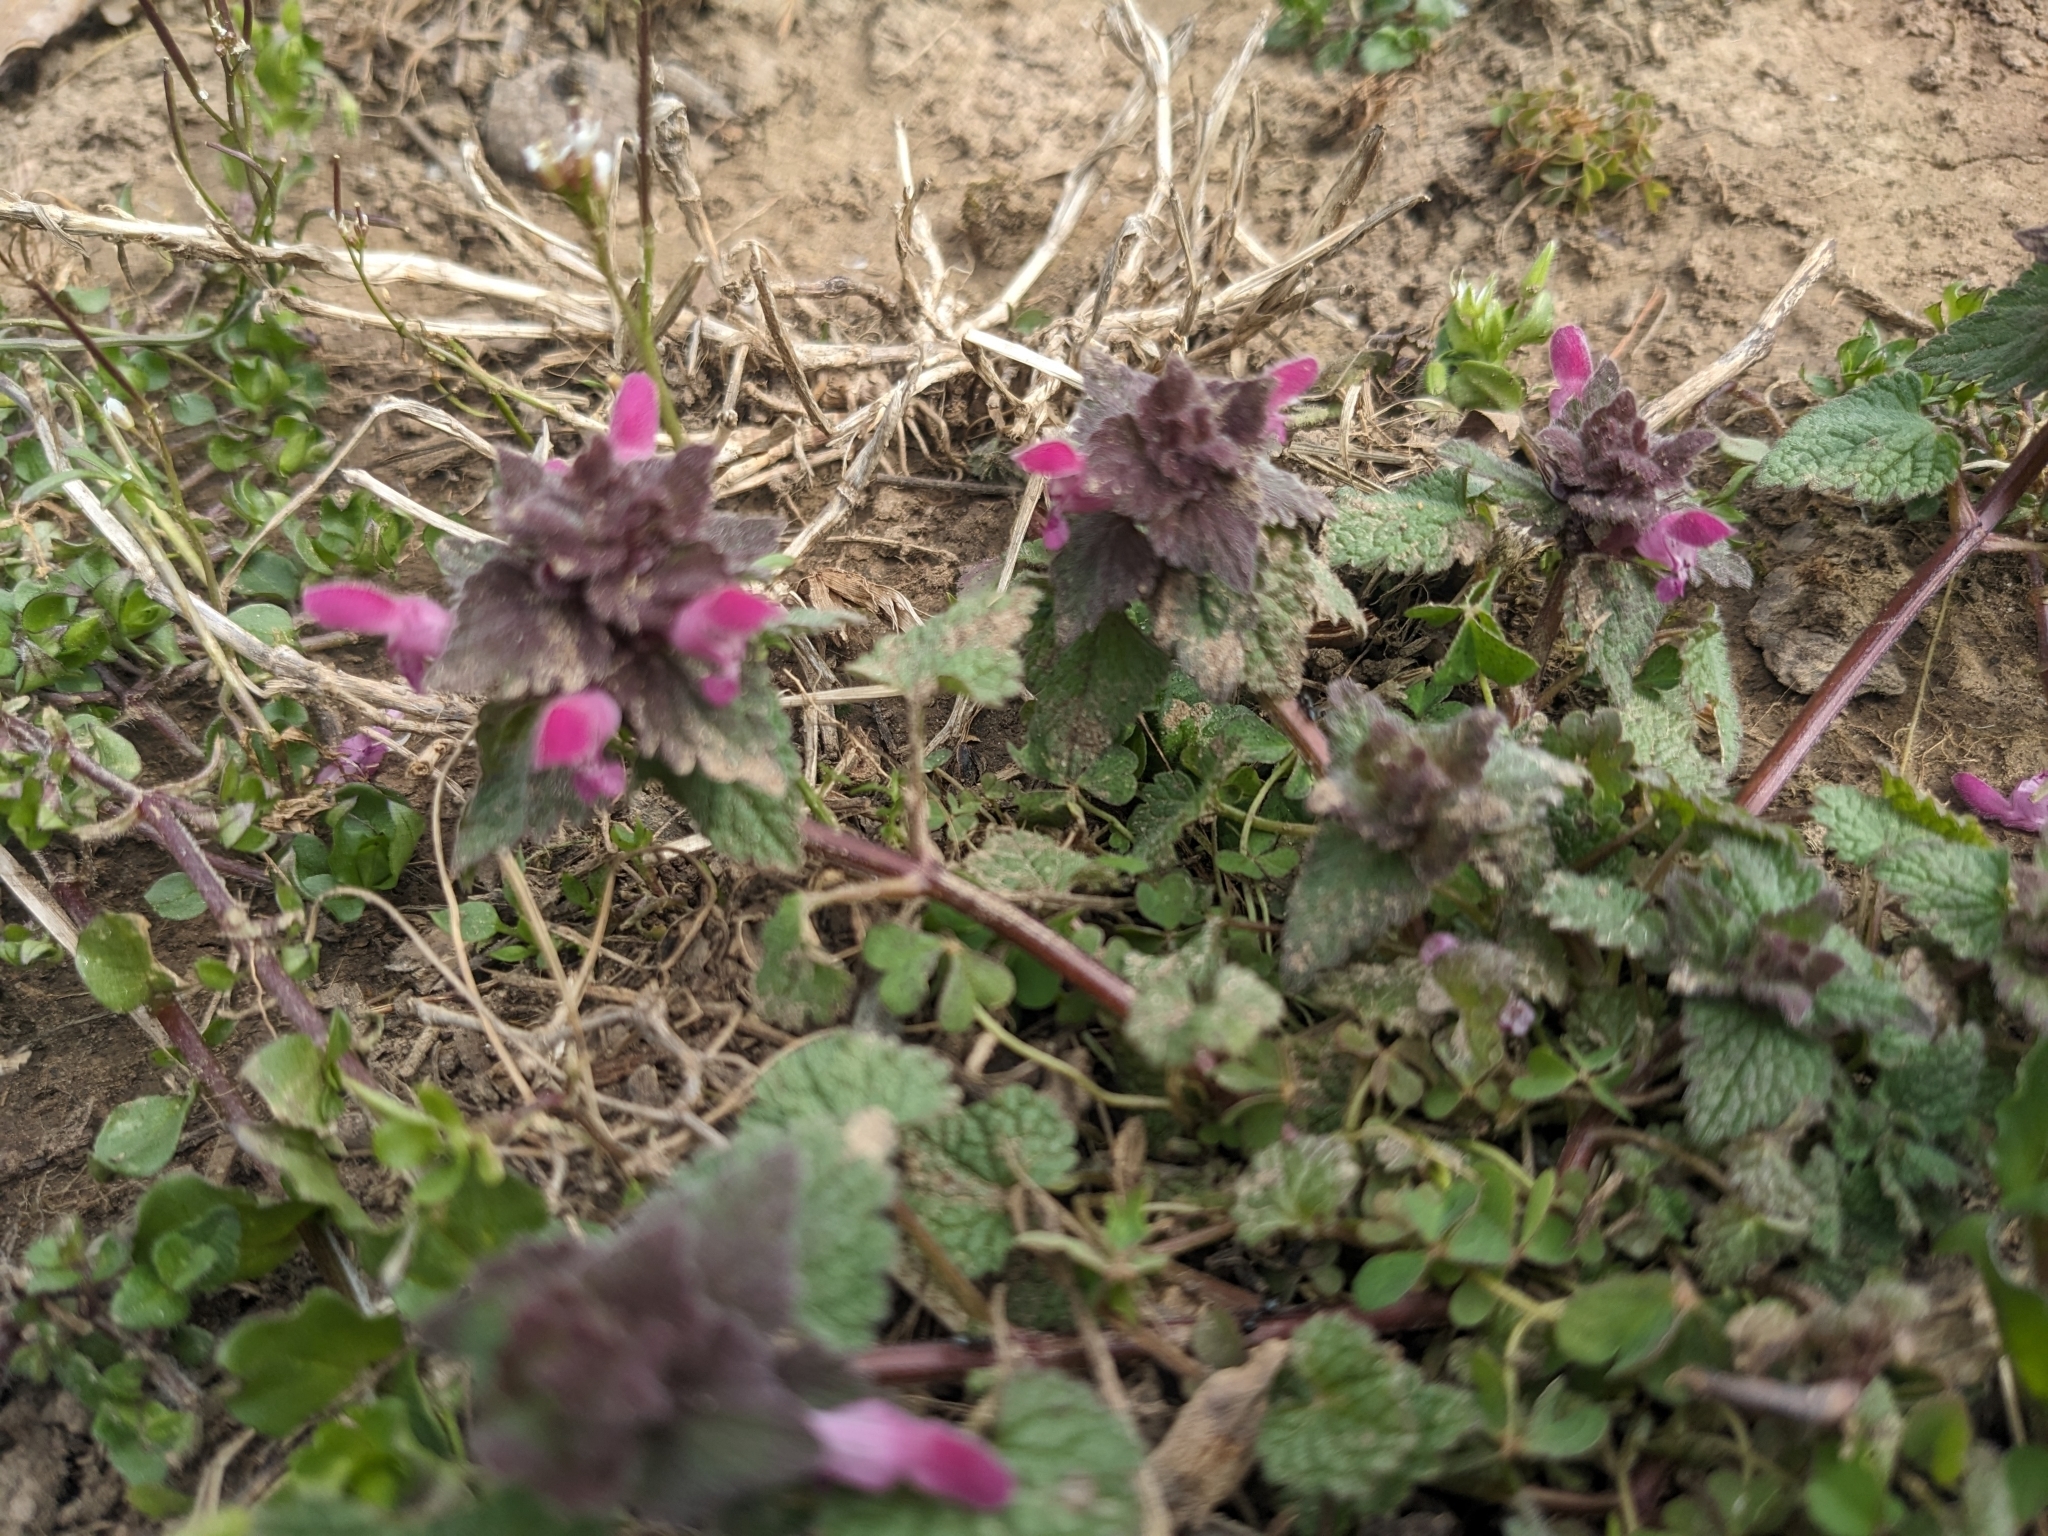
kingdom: Plantae
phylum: Tracheophyta
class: Magnoliopsida
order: Lamiales
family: Lamiaceae
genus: Lamium
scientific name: Lamium purpureum
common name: Red dead-nettle
